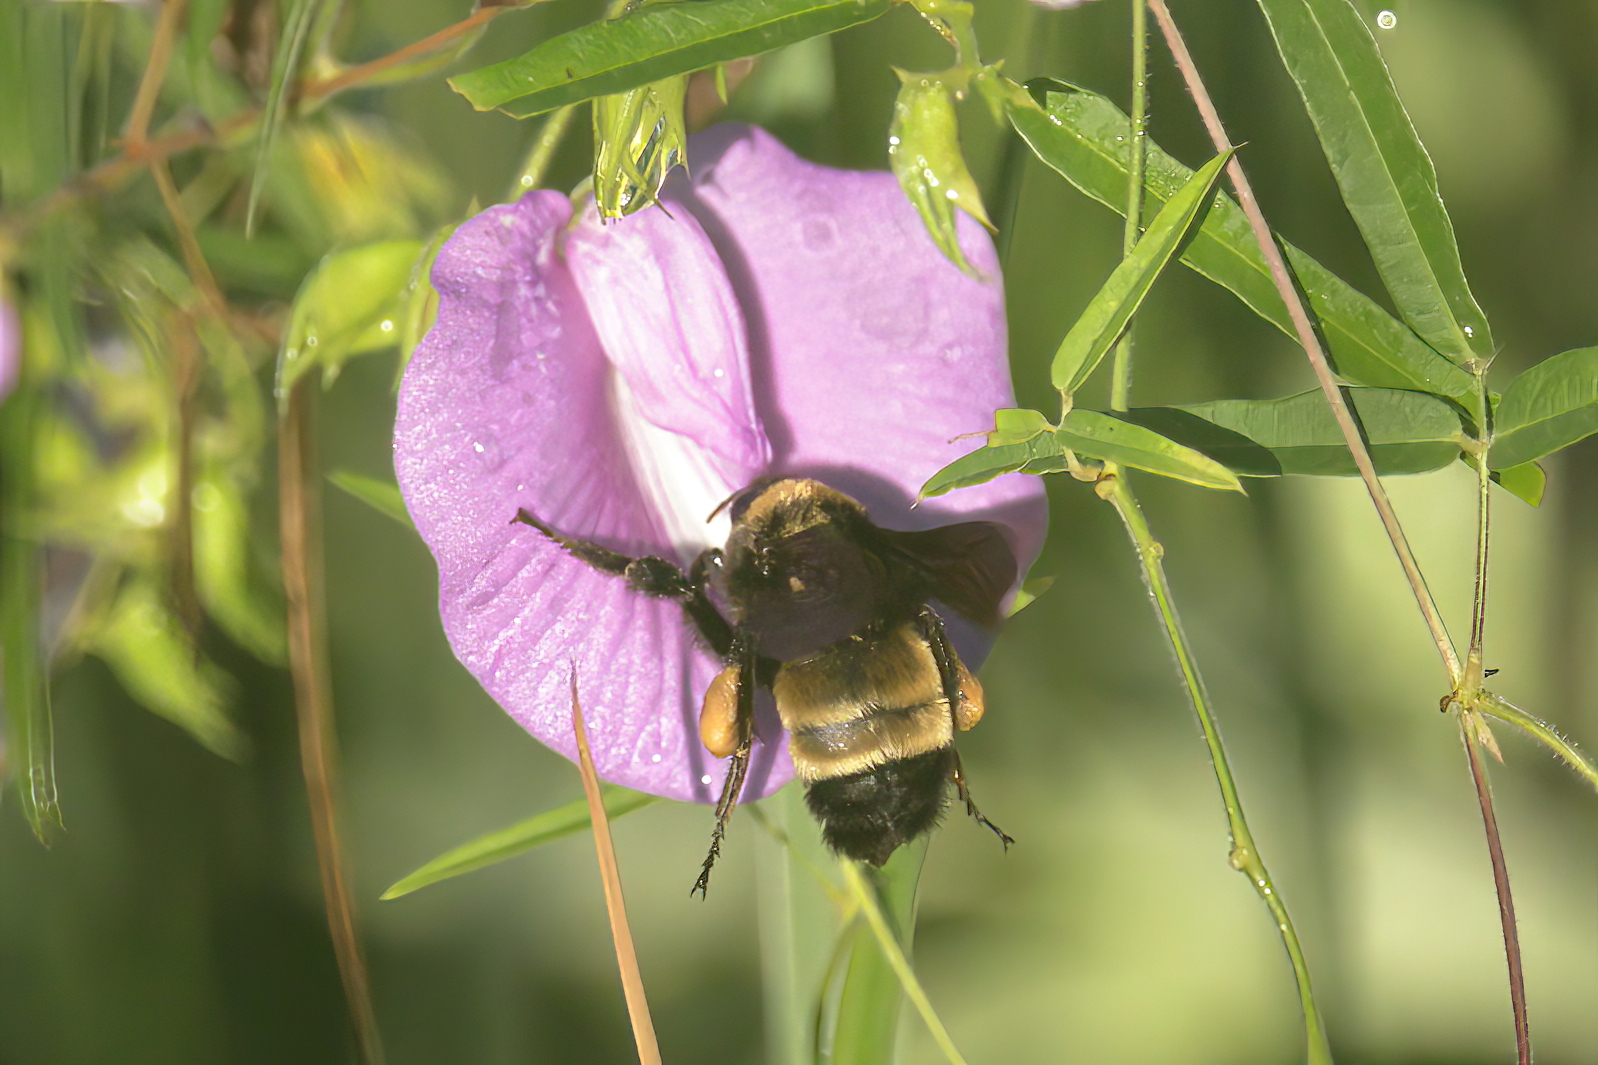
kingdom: Animalia
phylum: Arthropoda
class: Insecta
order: Hymenoptera
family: Apidae
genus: Bombus
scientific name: Bombus pensylvanicus
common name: Bumble bee
